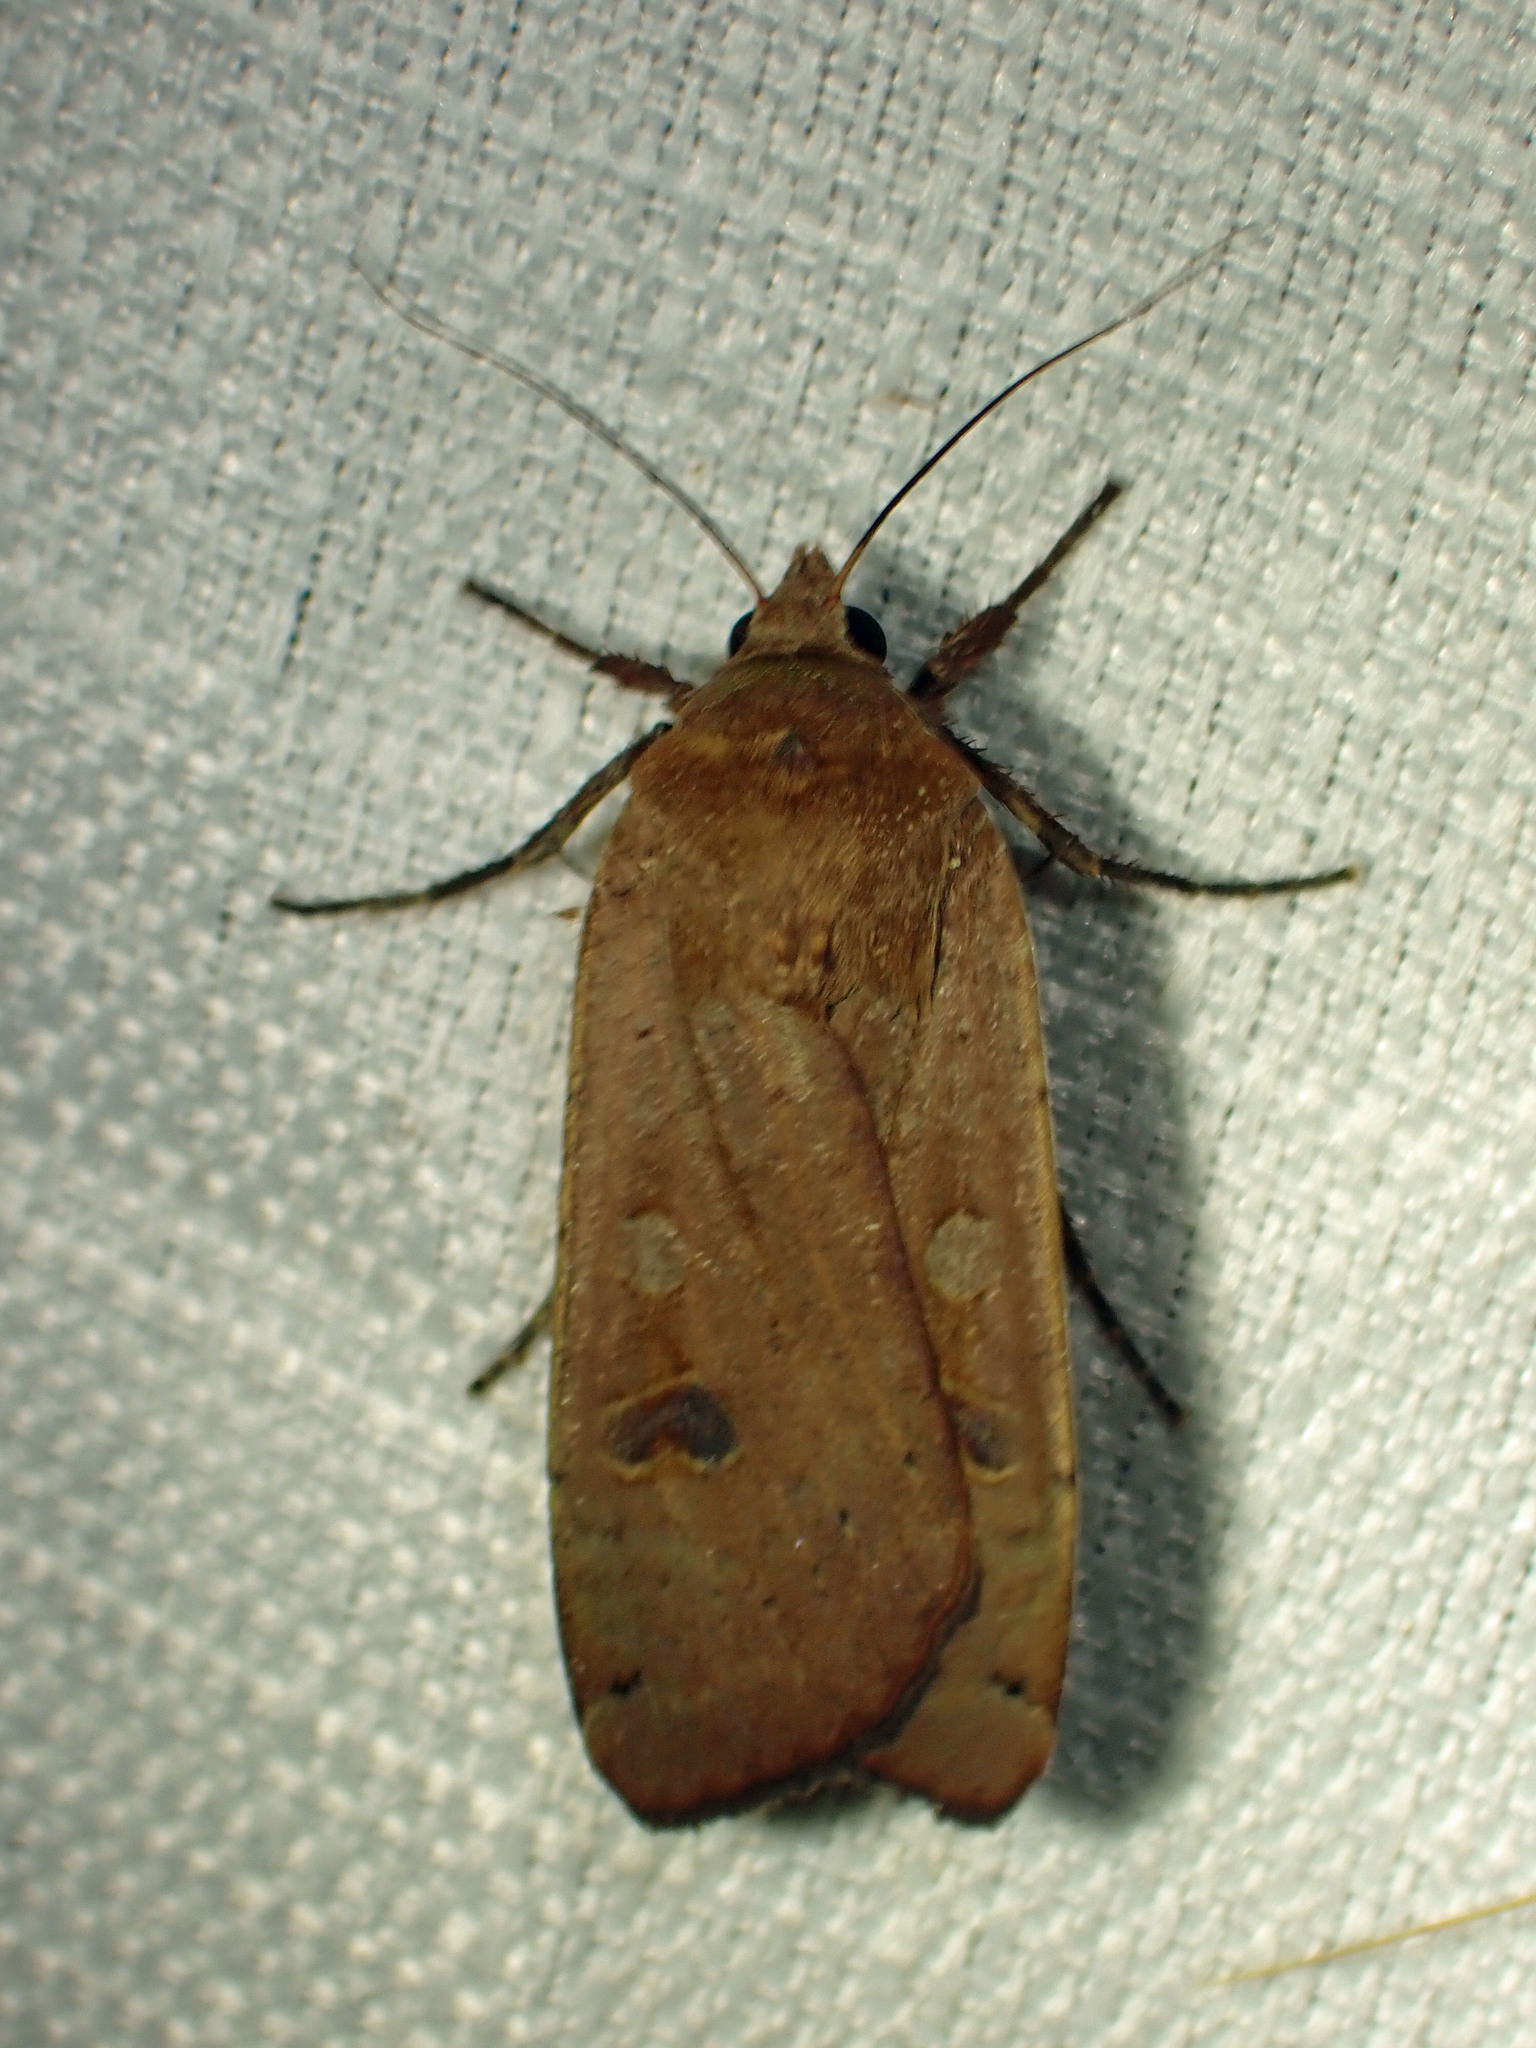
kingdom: Animalia
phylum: Arthropoda
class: Insecta
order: Lepidoptera
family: Noctuidae
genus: Noctua
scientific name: Noctua pronuba
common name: Large yellow underwing
